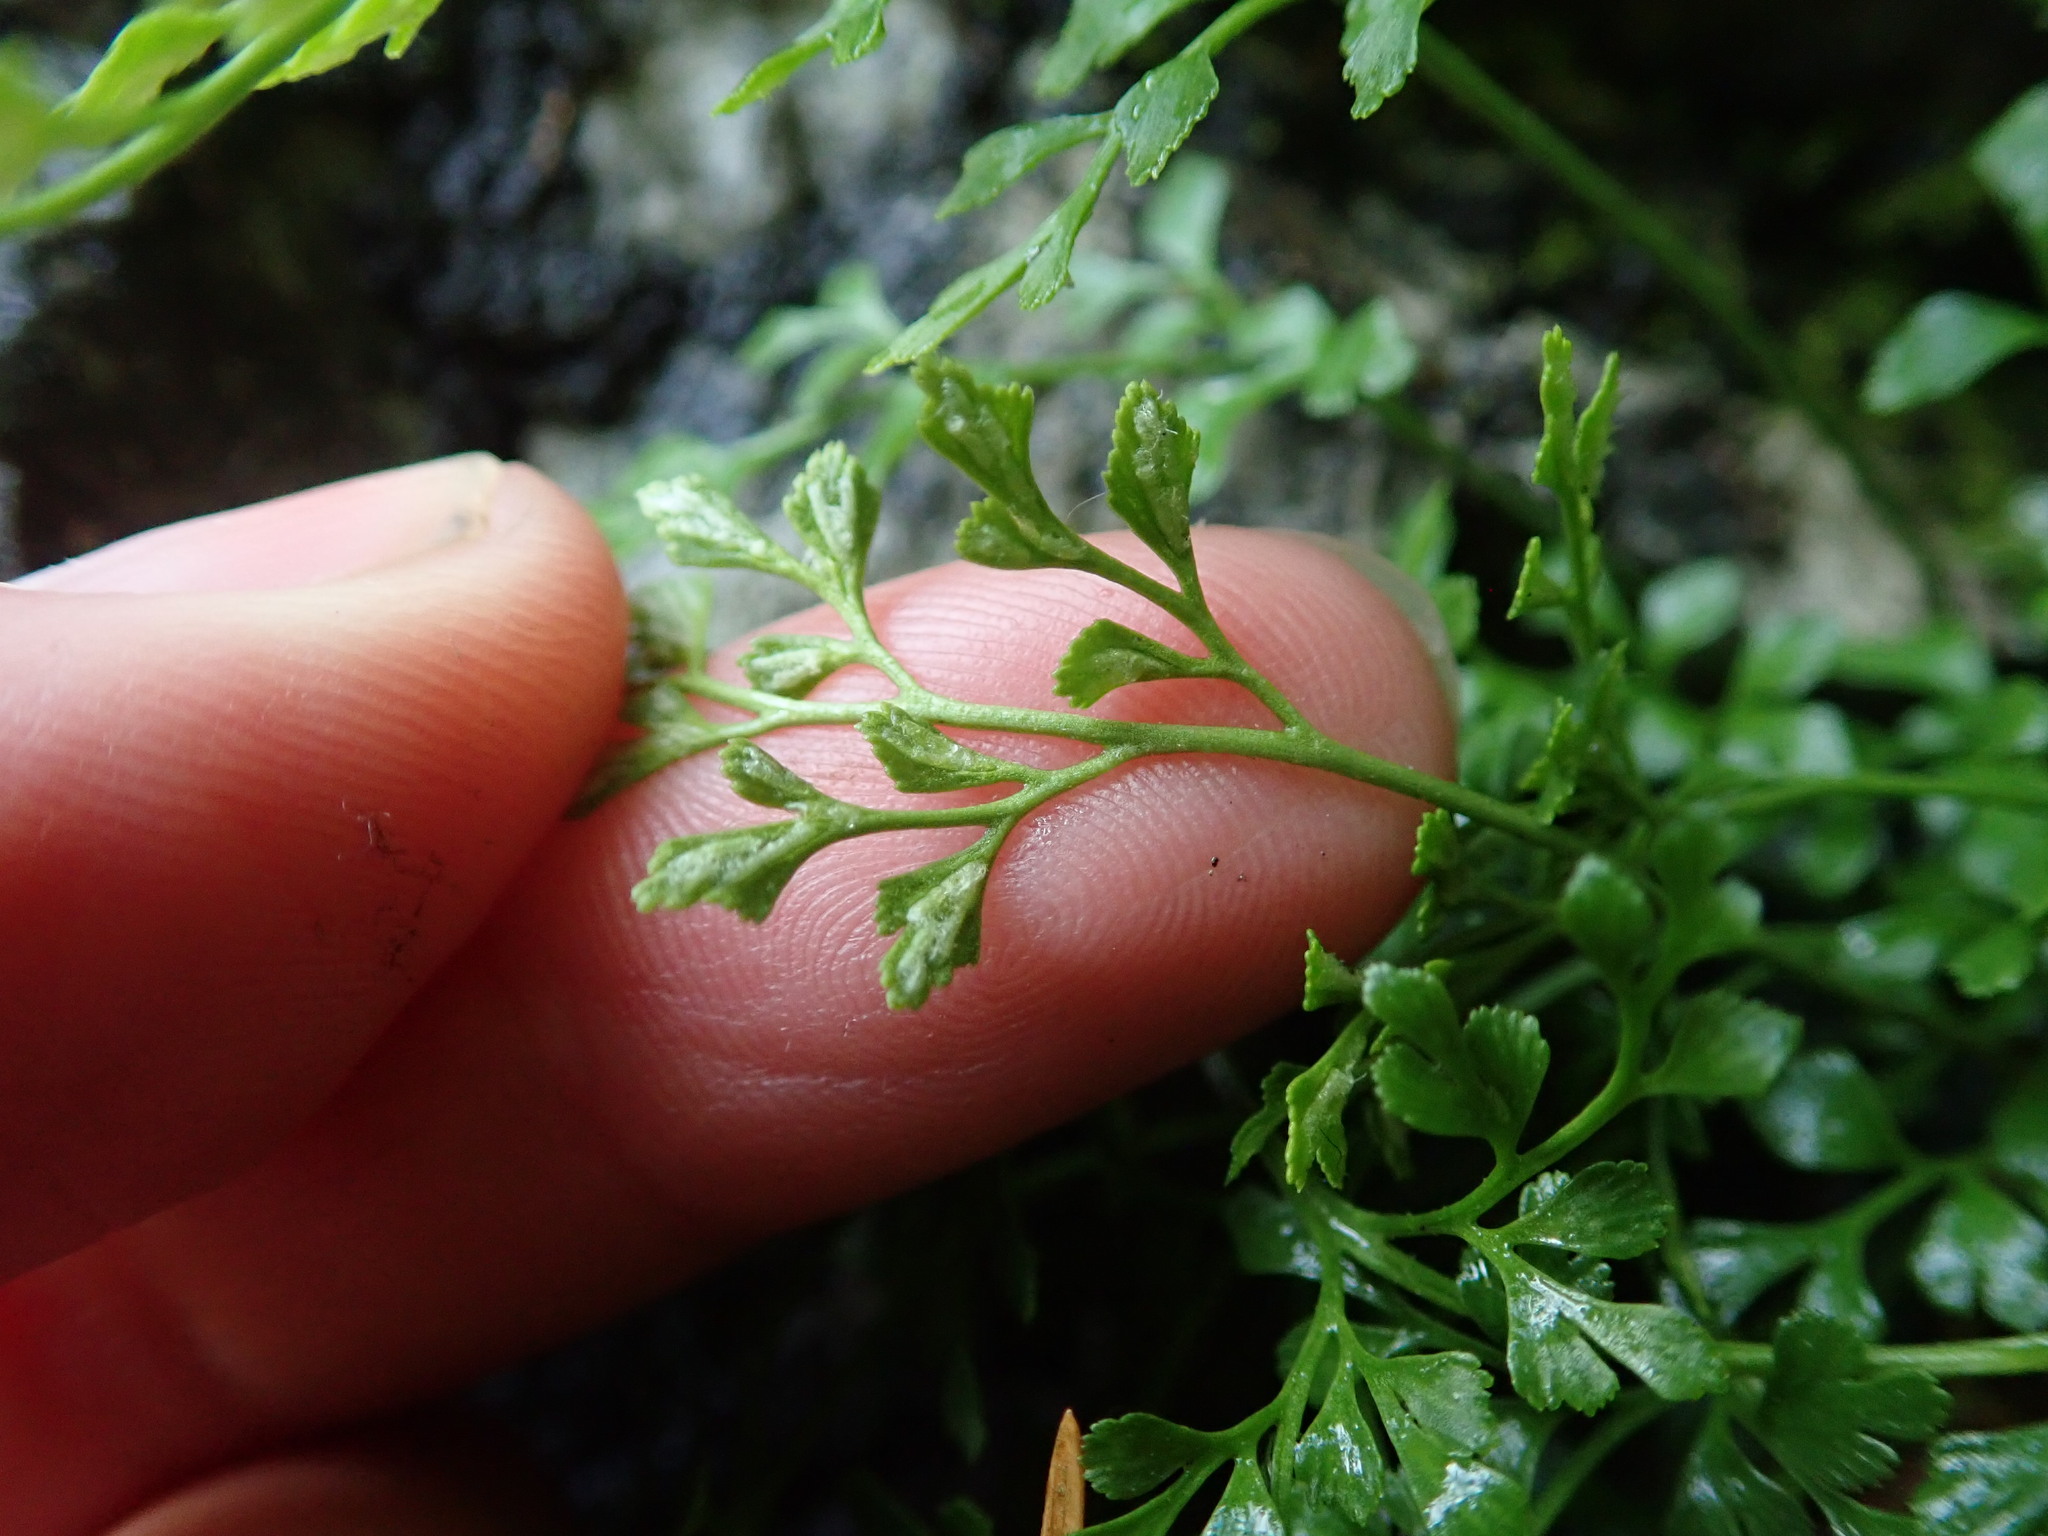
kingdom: Plantae
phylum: Tracheophyta
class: Polypodiopsida
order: Polypodiales
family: Aspleniaceae
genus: Asplenium
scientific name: Asplenium ruta-muraria
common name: Wall-rue
